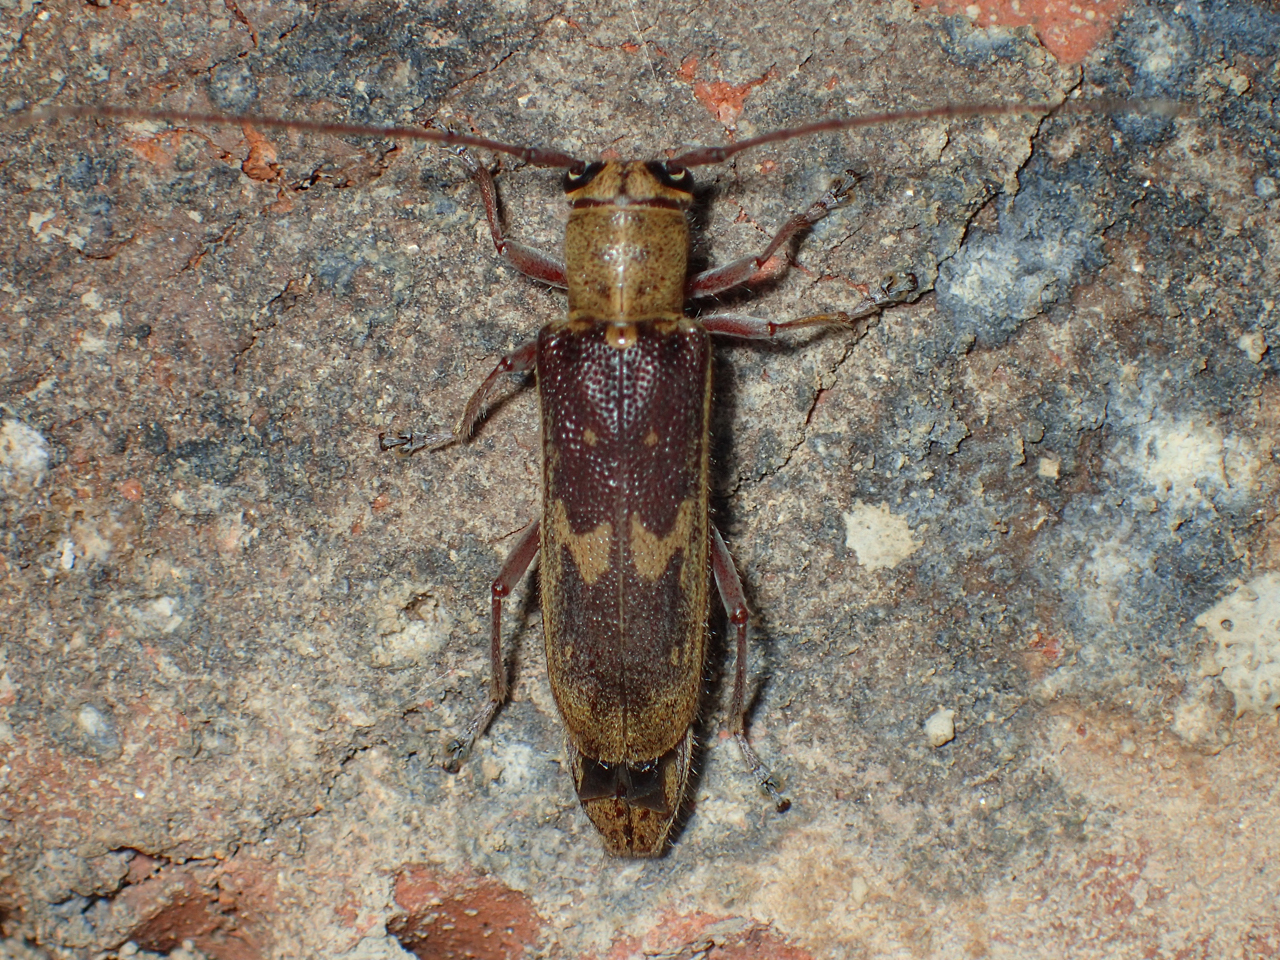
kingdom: Animalia
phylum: Arthropoda
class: Insecta
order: Coleoptera
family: Cerambycidae
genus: Saperda
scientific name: Saperda discoidea
